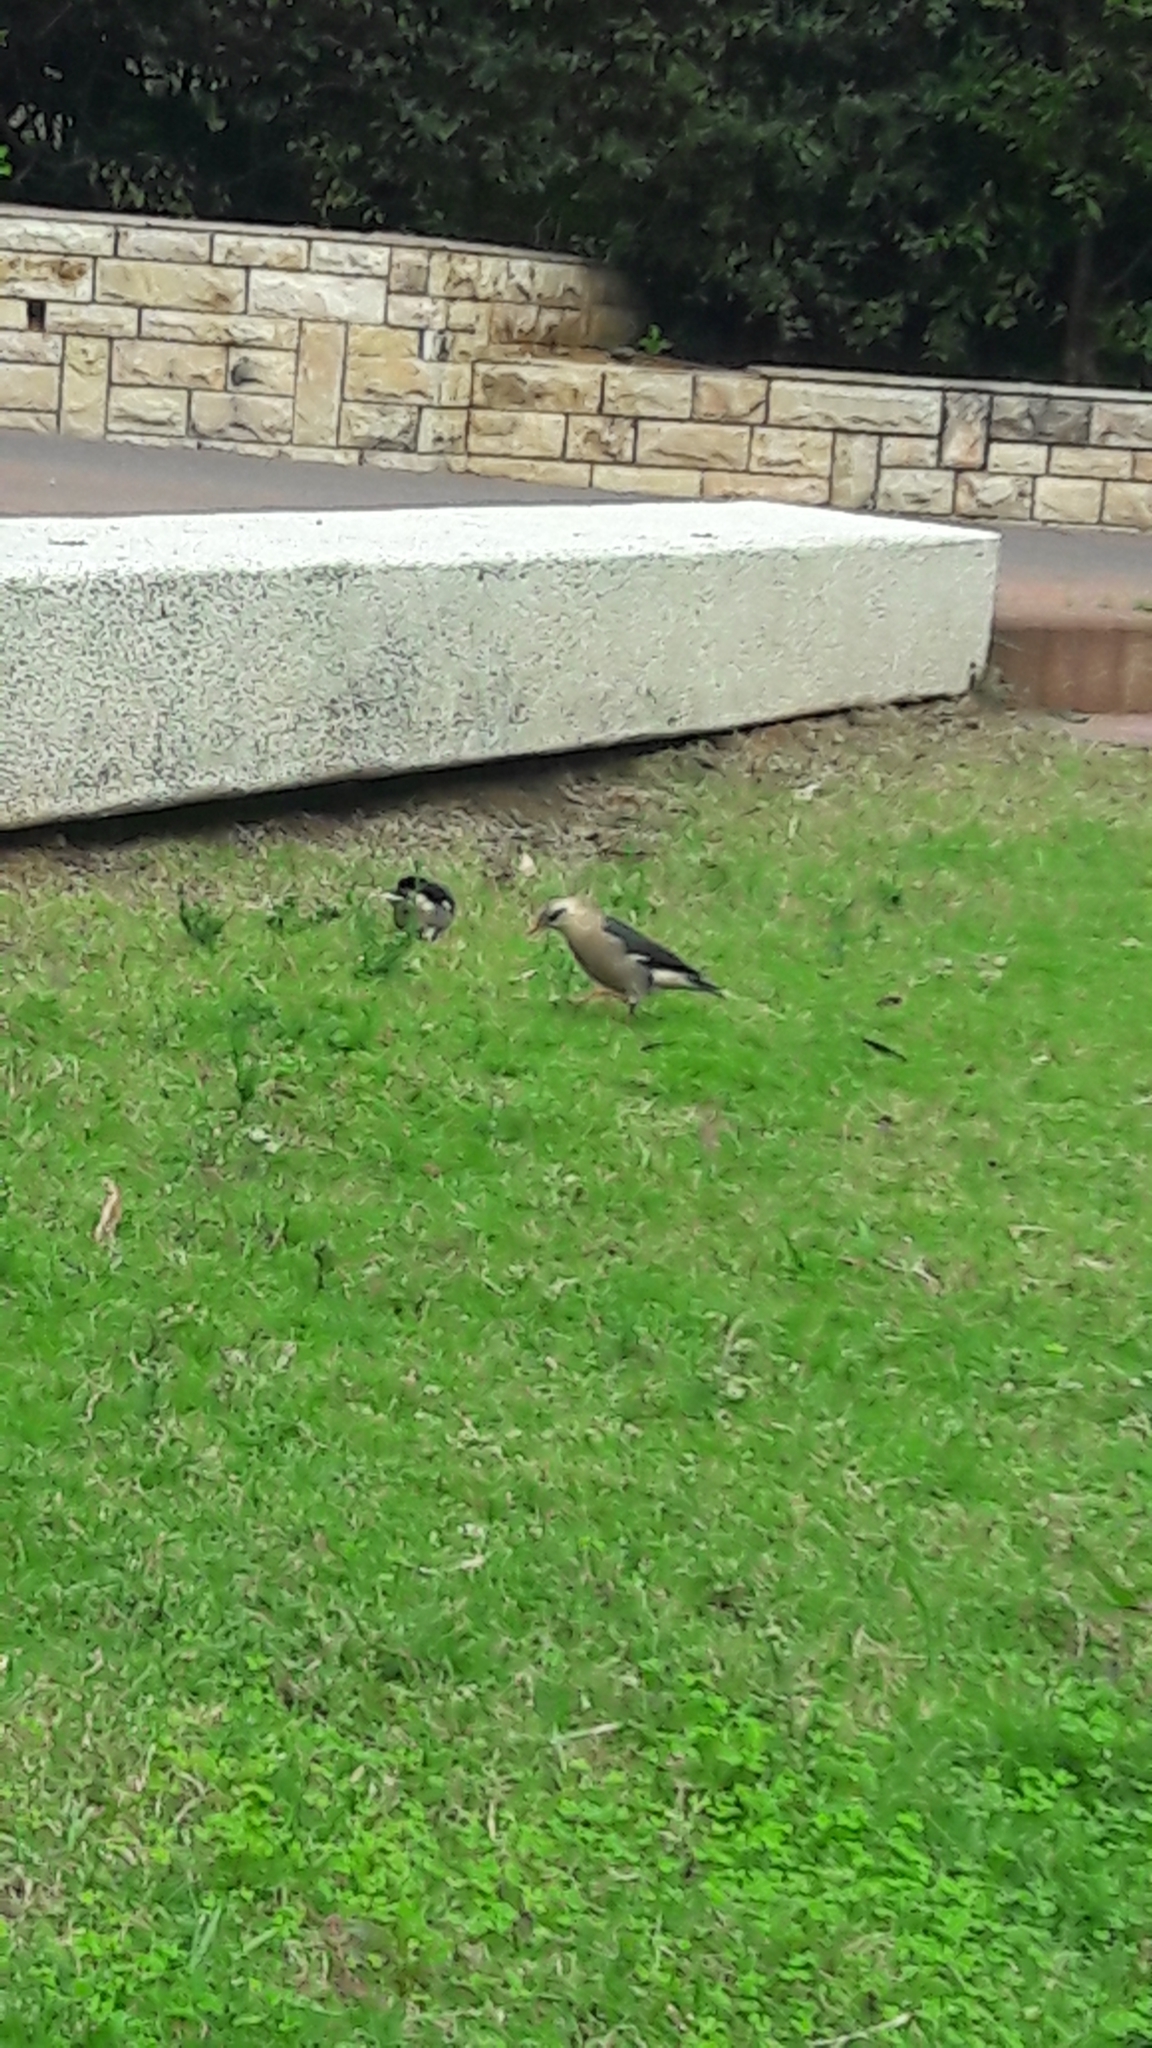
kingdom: Animalia
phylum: Chordata
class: Aves
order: Passeriformes
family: Sturnidae
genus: Acridotheres
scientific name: Acridotheres leucocephalus
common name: Vinous-breasted myna
